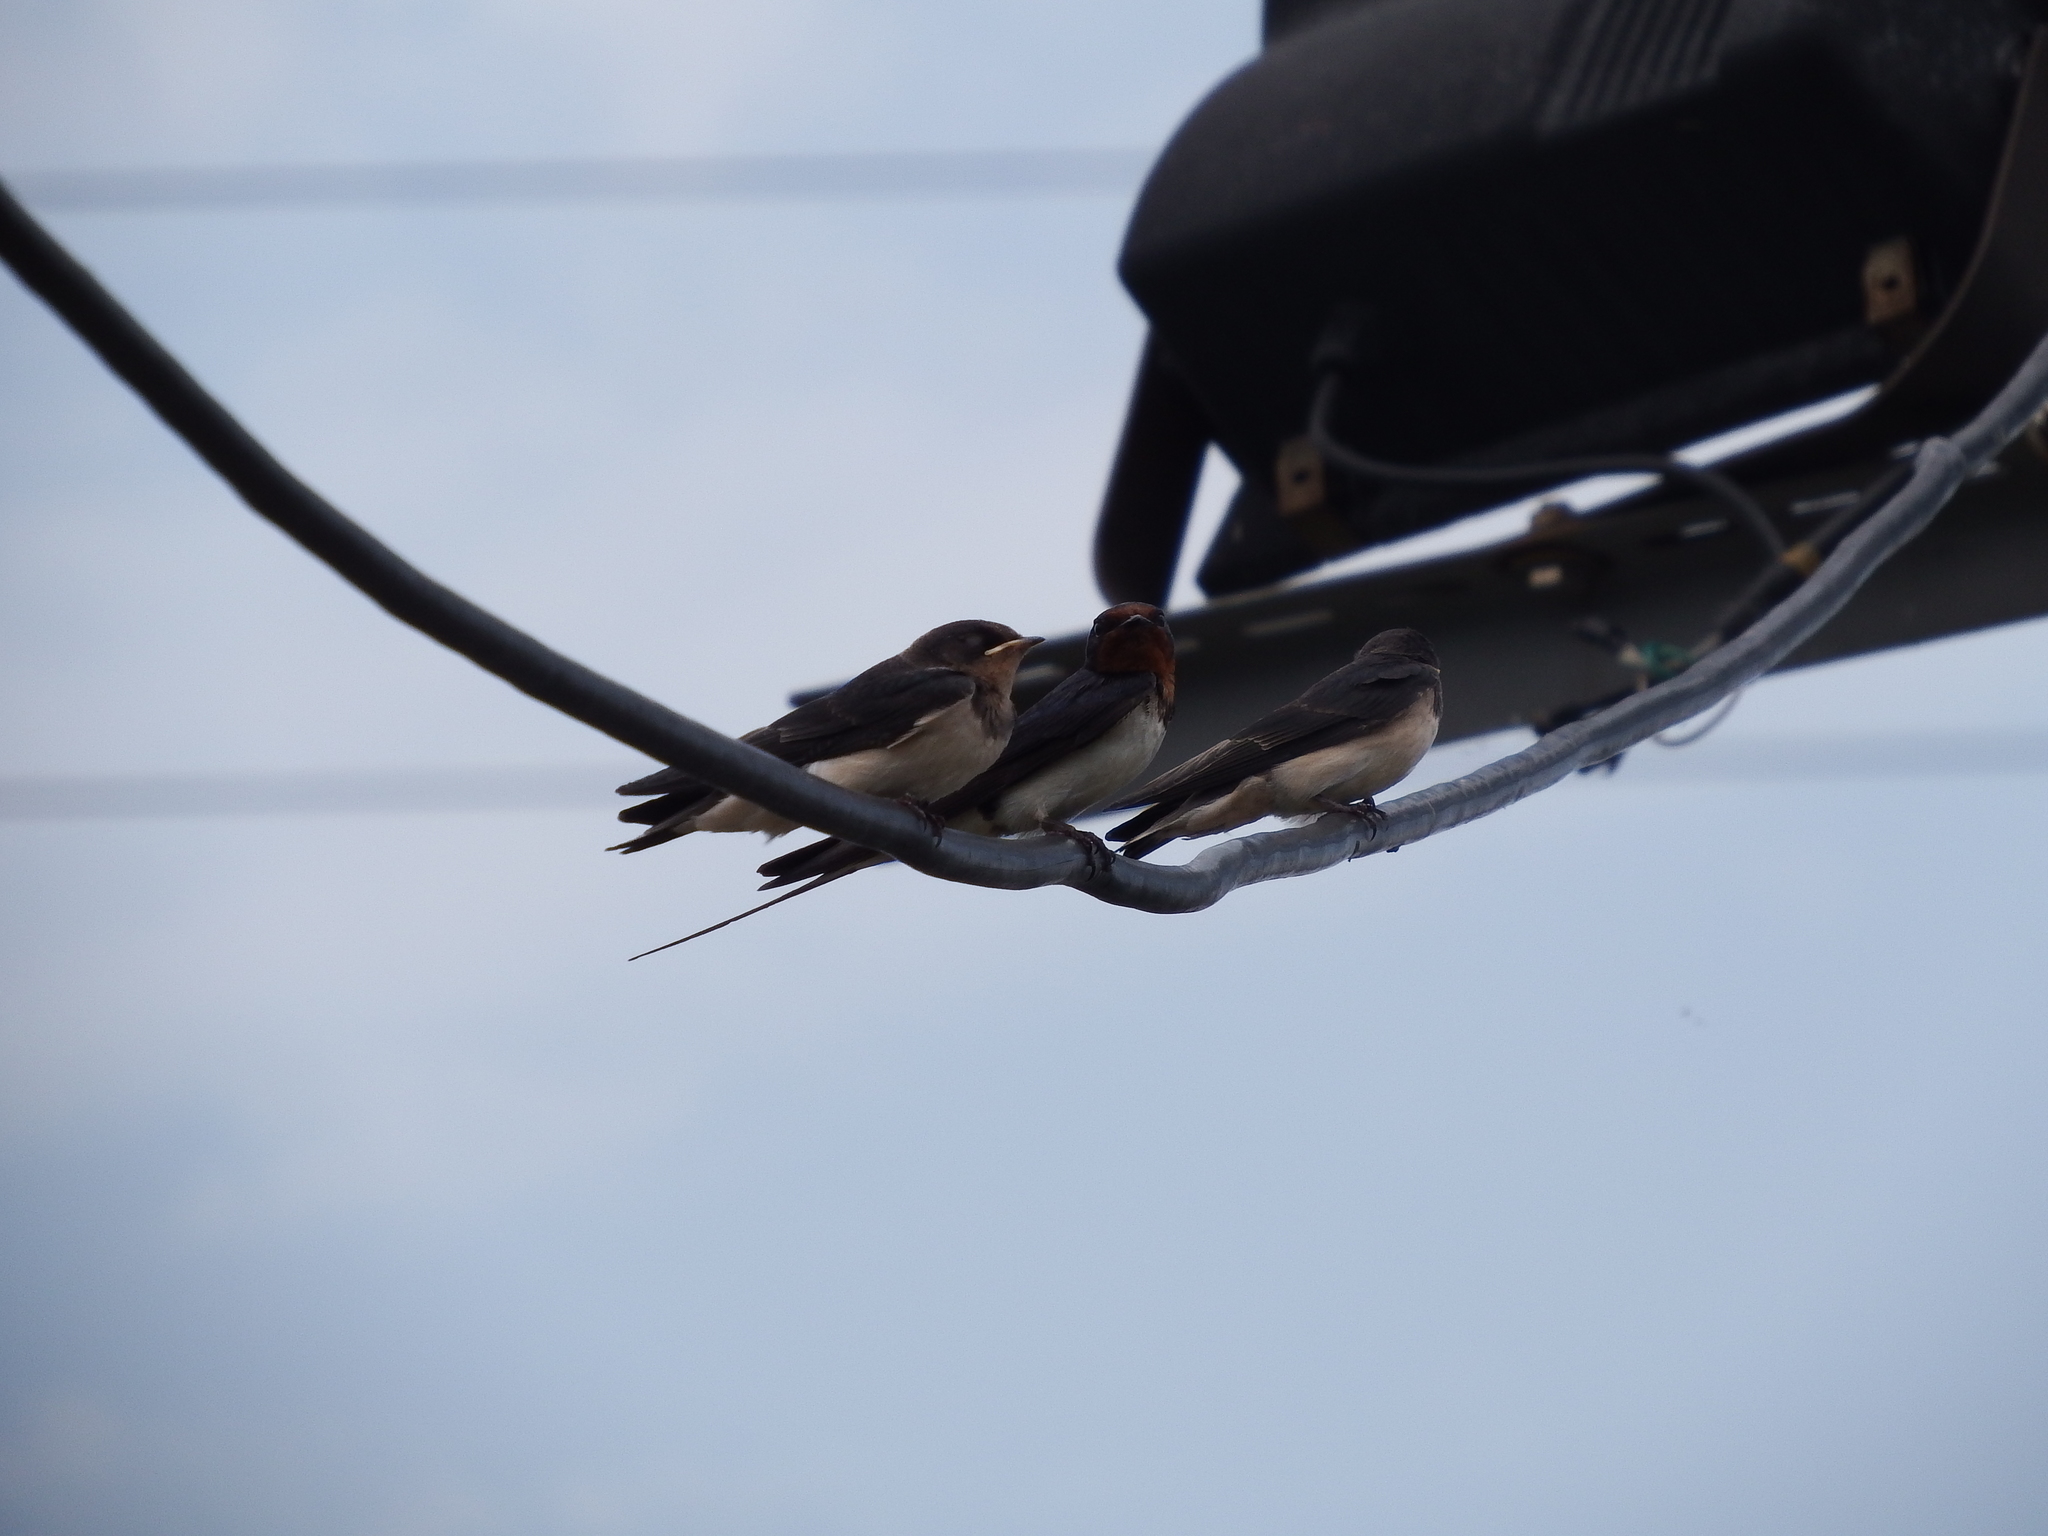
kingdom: Animalia
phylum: Chordata
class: Aves
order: Passeriformes
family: Hirundinidae
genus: Hirundo
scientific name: Hirundo rustica
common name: Barn swallow
